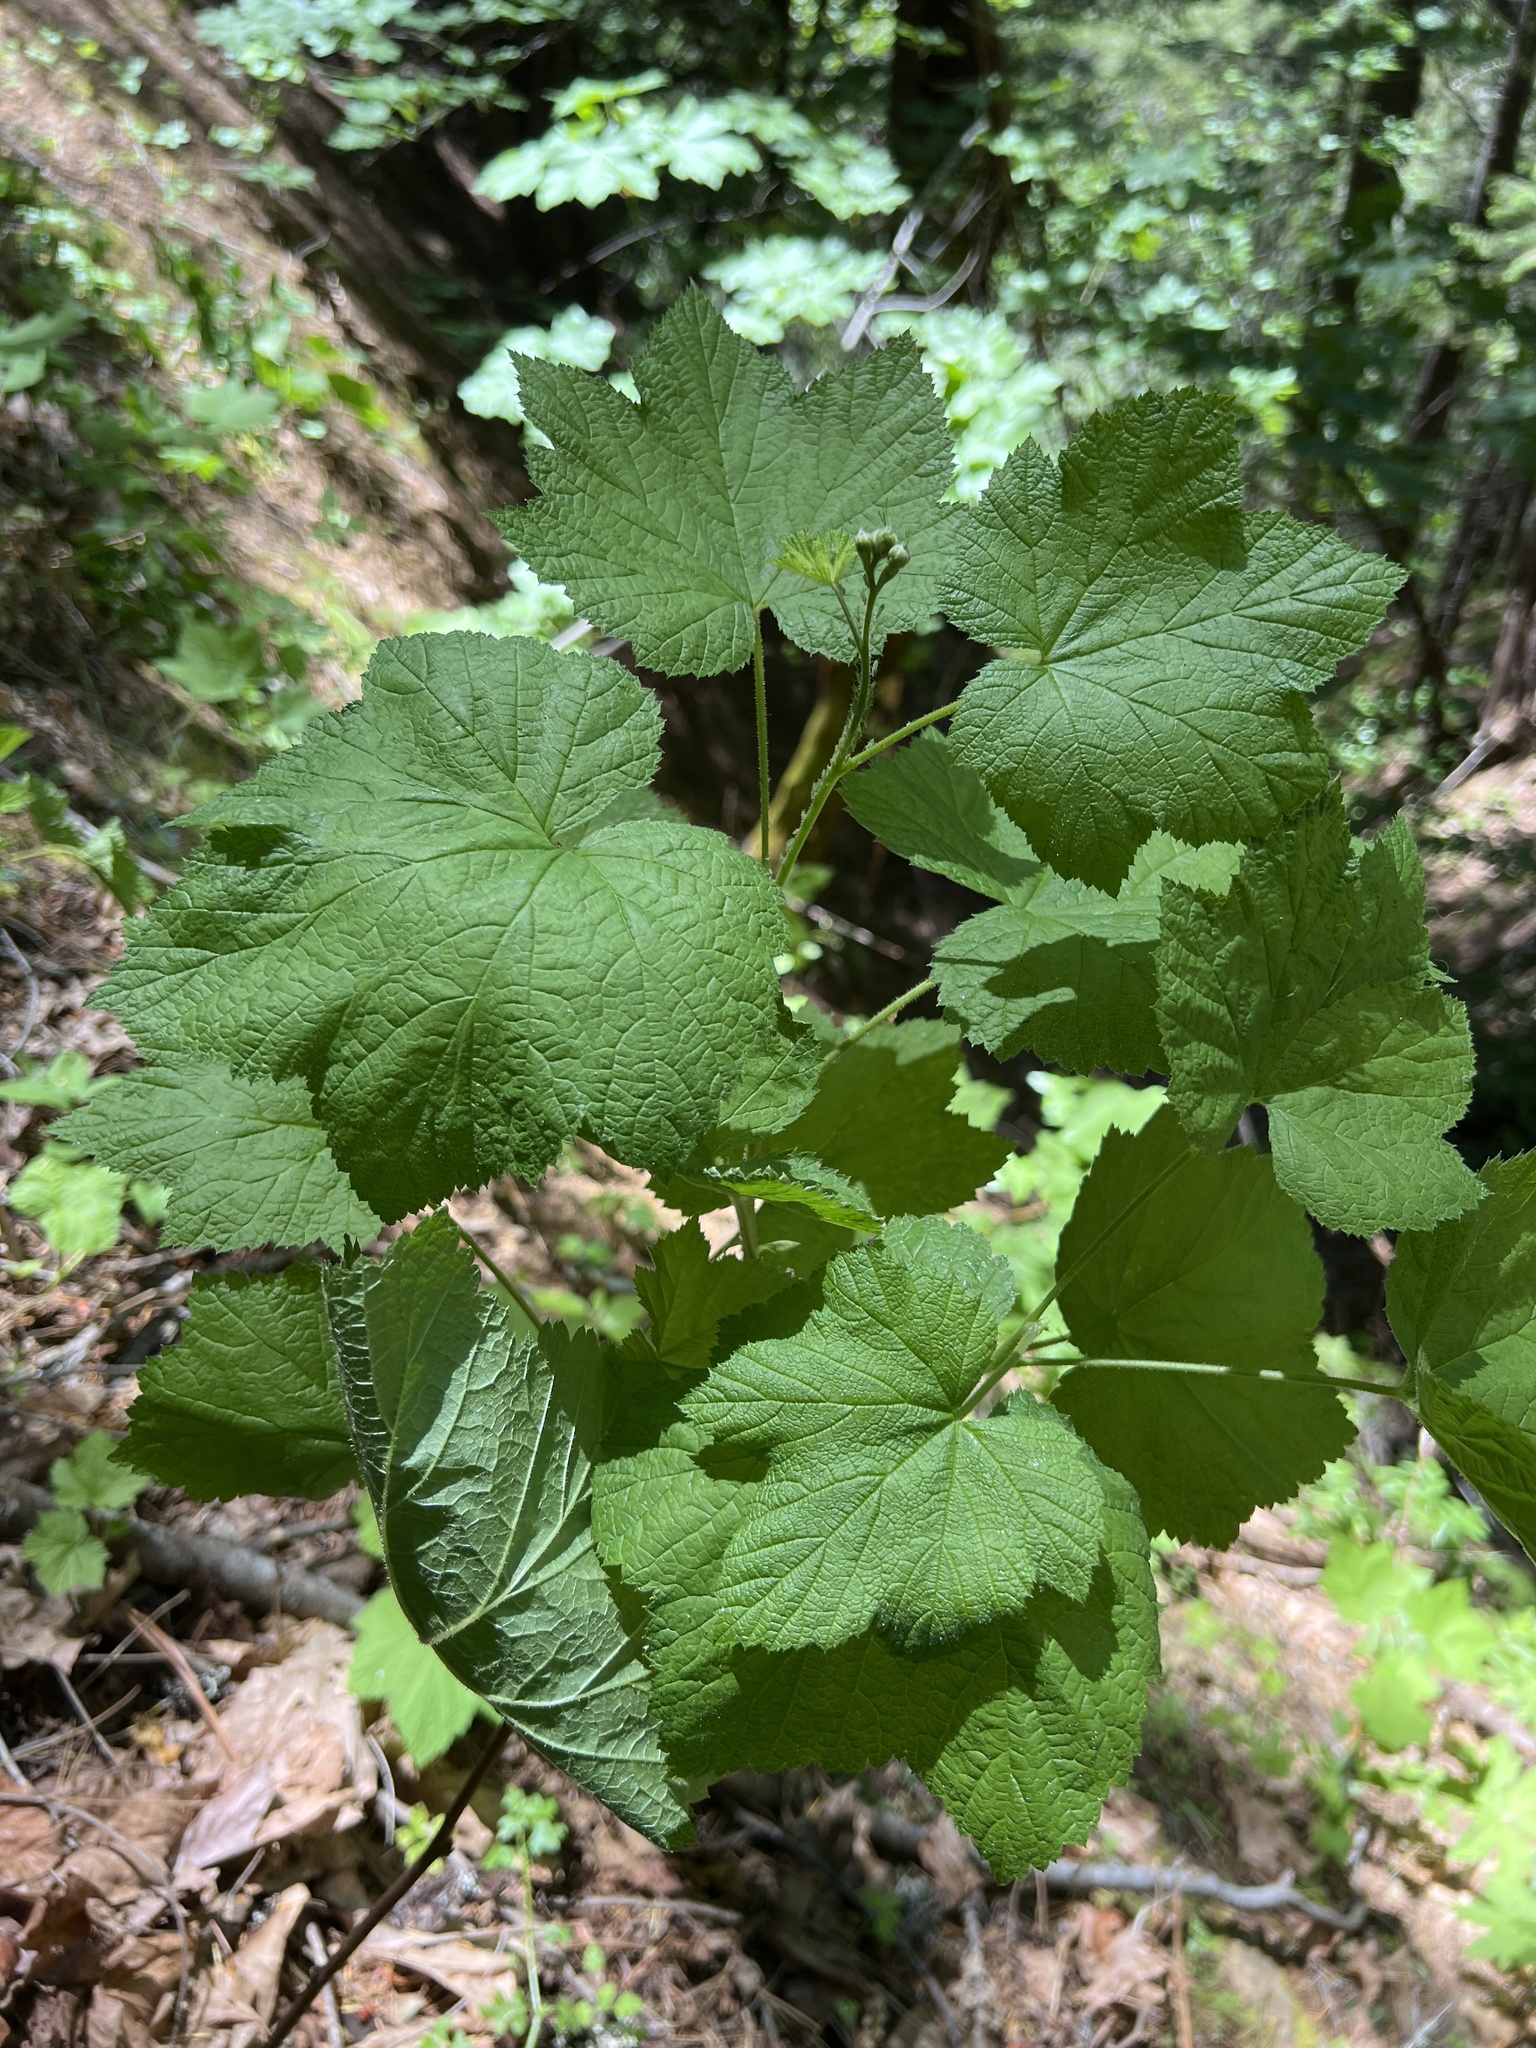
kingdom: Plantae
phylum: Tracheophyta
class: Magnoliopsida
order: Rosales
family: Rosaceae
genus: Rubus
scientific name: Rubus parviflorus
